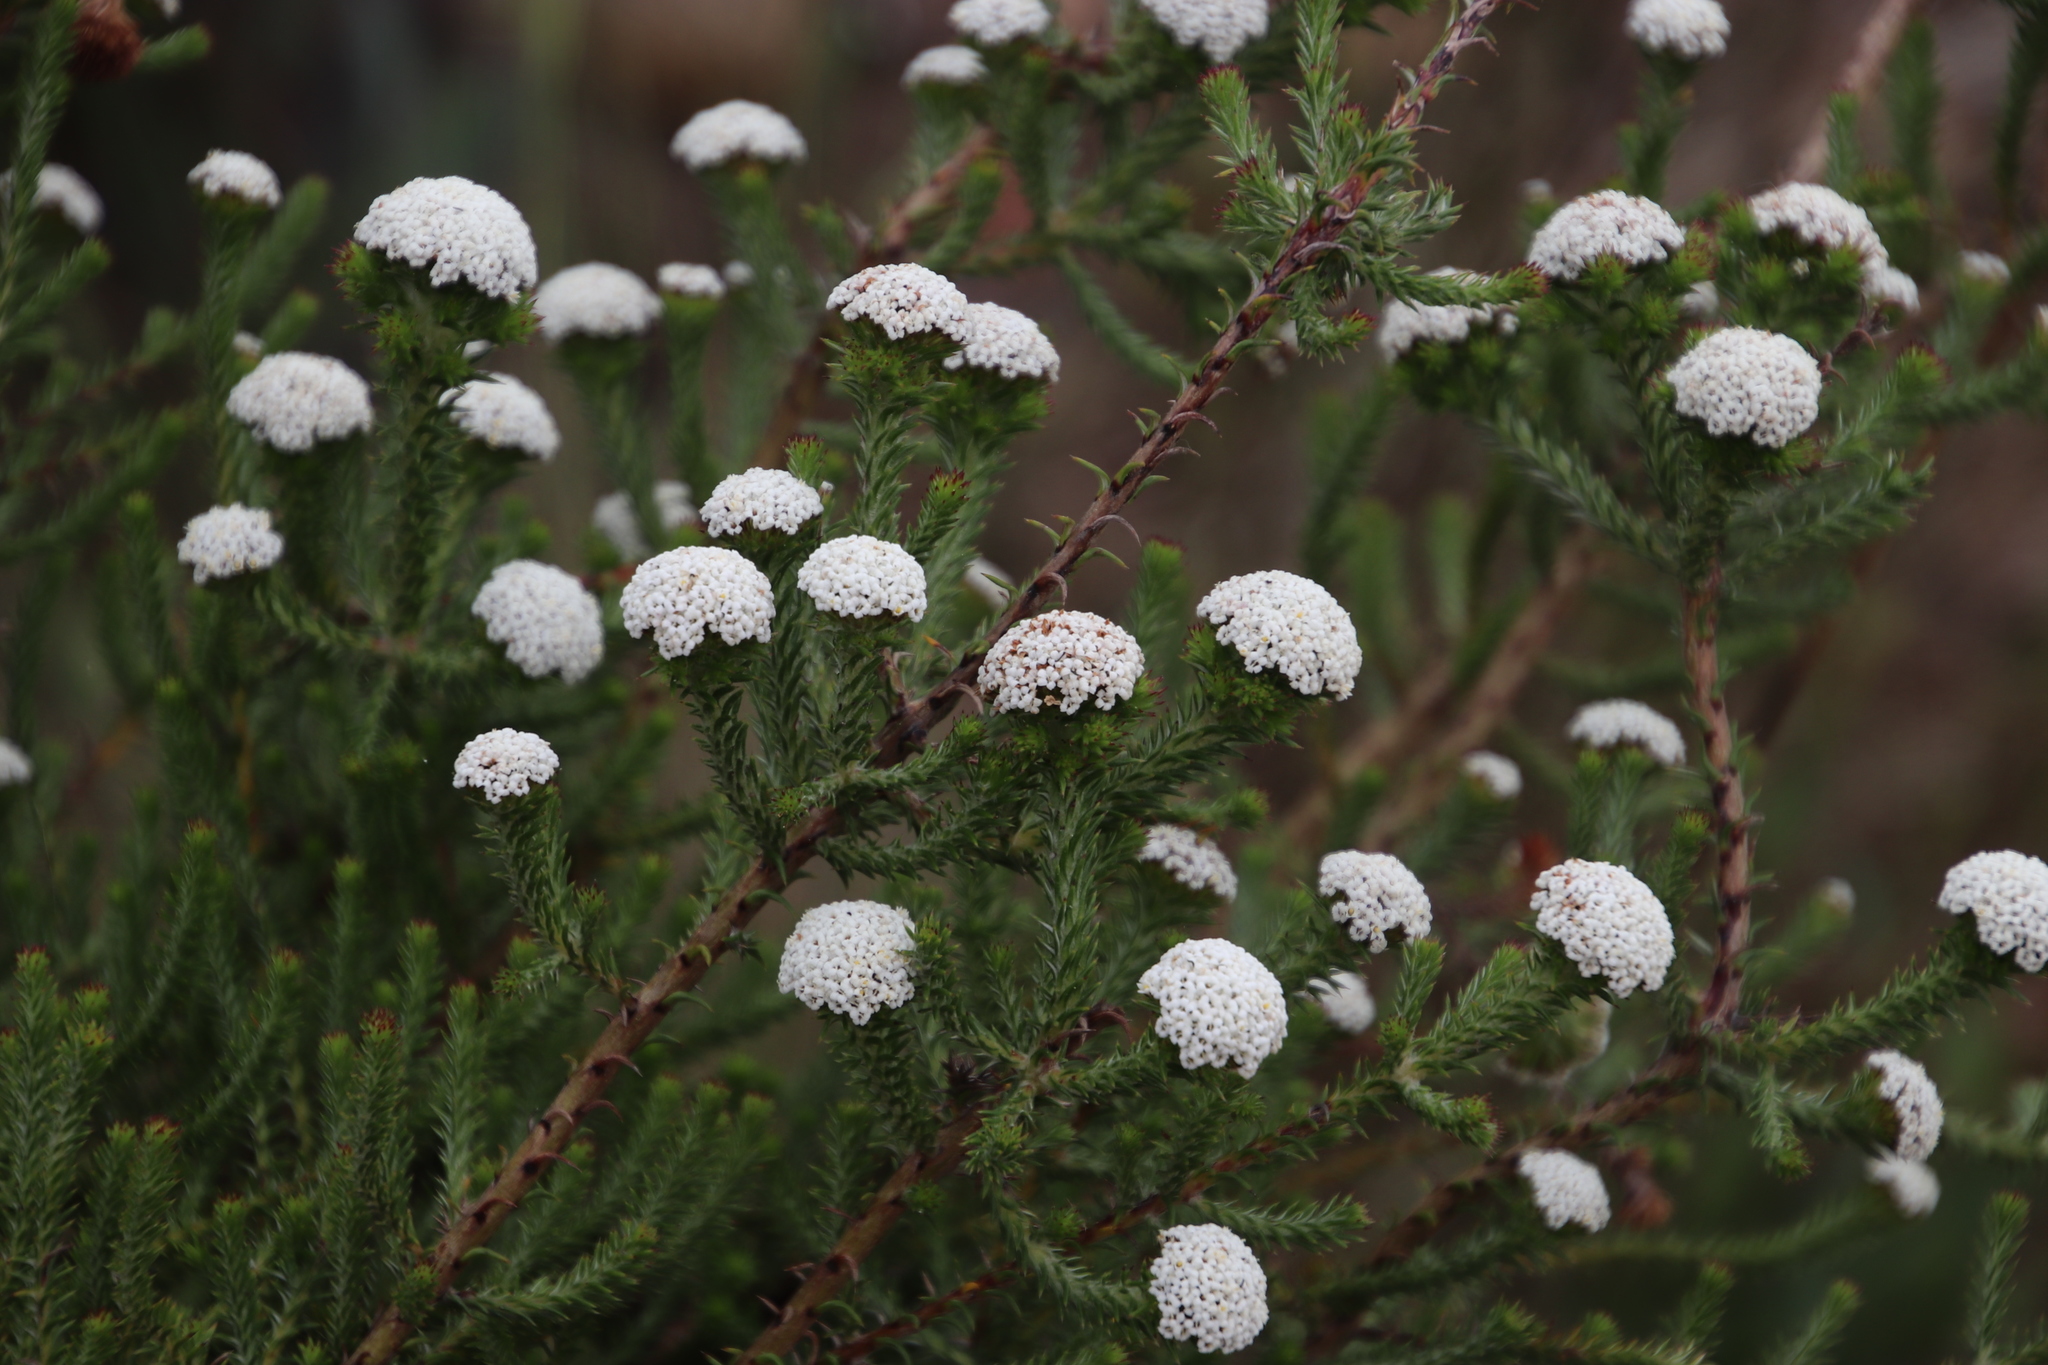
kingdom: Plantae
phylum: Tracheophyta
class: Magnoliopsida
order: Asterales
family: Asteraceae
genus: Stoebe
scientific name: Stoebe aethiopica
